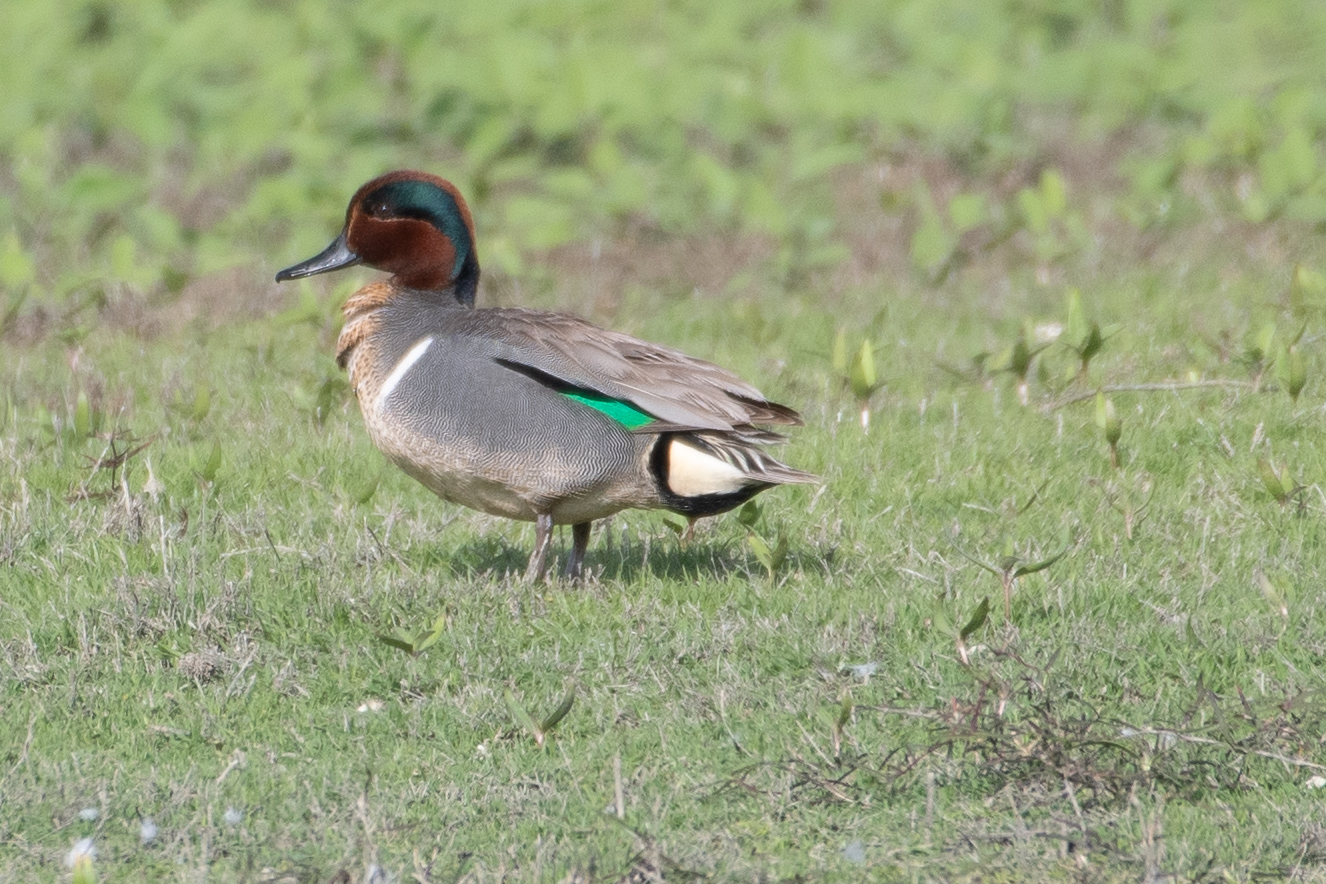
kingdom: Animalia
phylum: Chordata
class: Aves
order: Anseriformes
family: Anatidae
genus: Anas
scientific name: Anas crecca
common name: Eurasian teal
